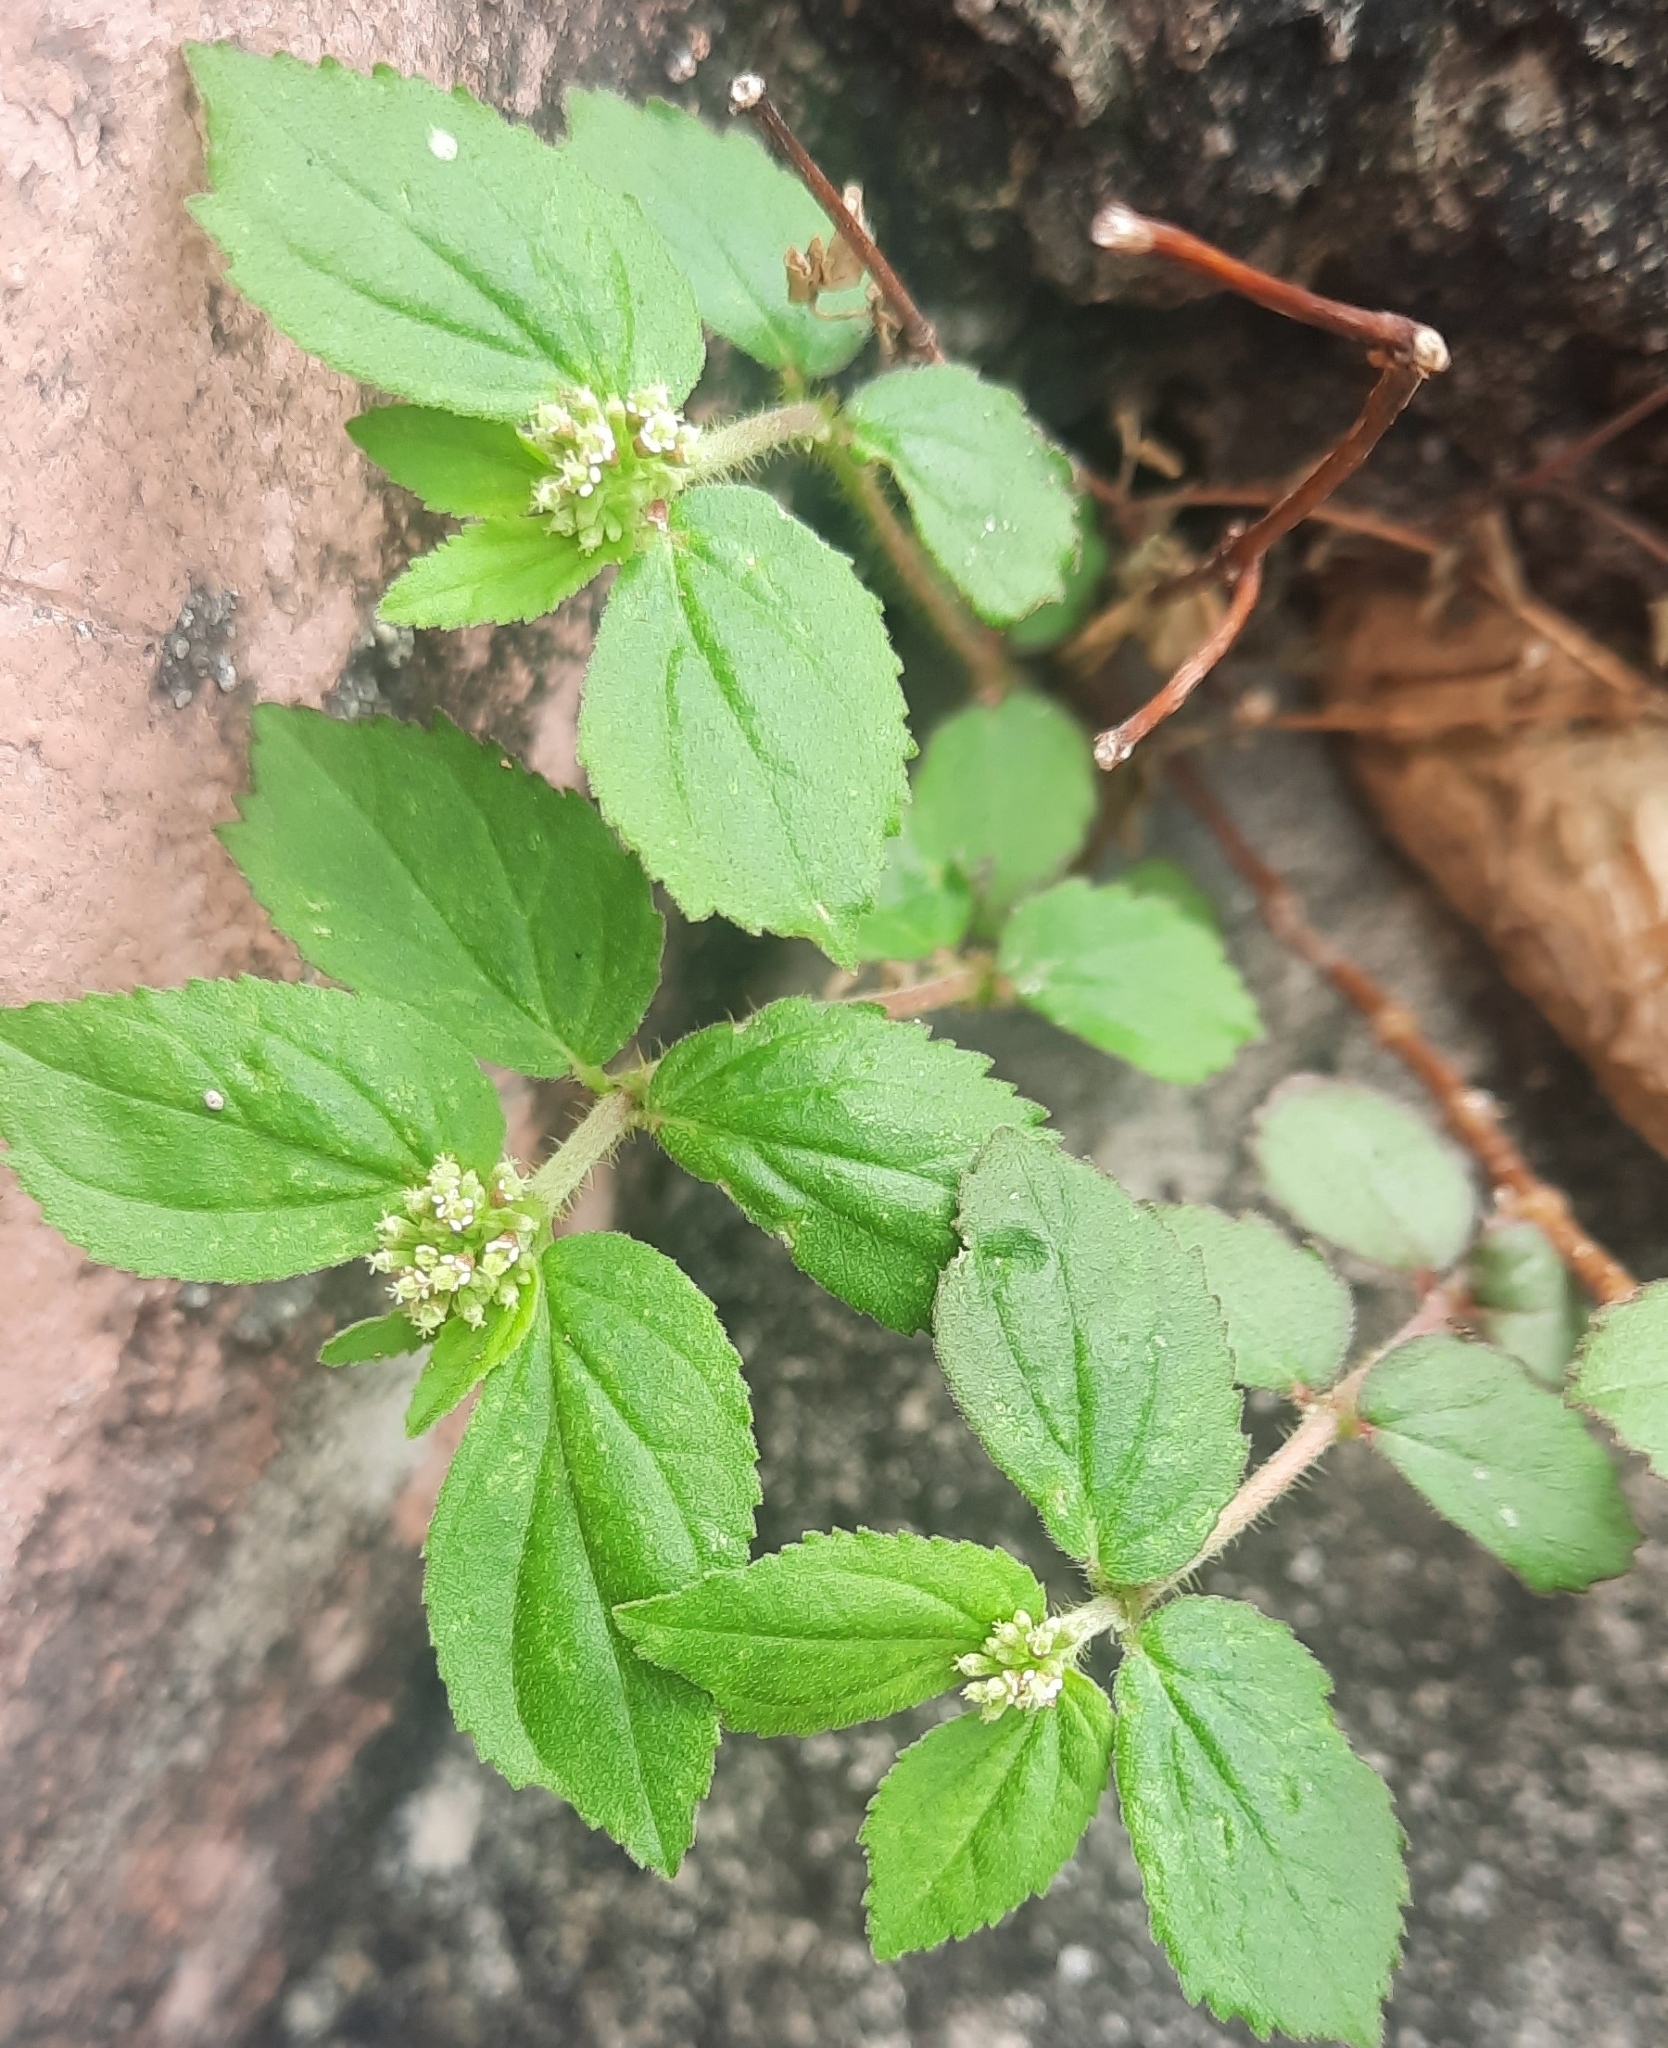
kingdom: Plantae
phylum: Tracheophyta
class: Magnoliopsida
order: Malpighiales
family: Euphorbiaceae
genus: Euphorbia
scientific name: Euphorbia hirta
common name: Pillpod sandmat
